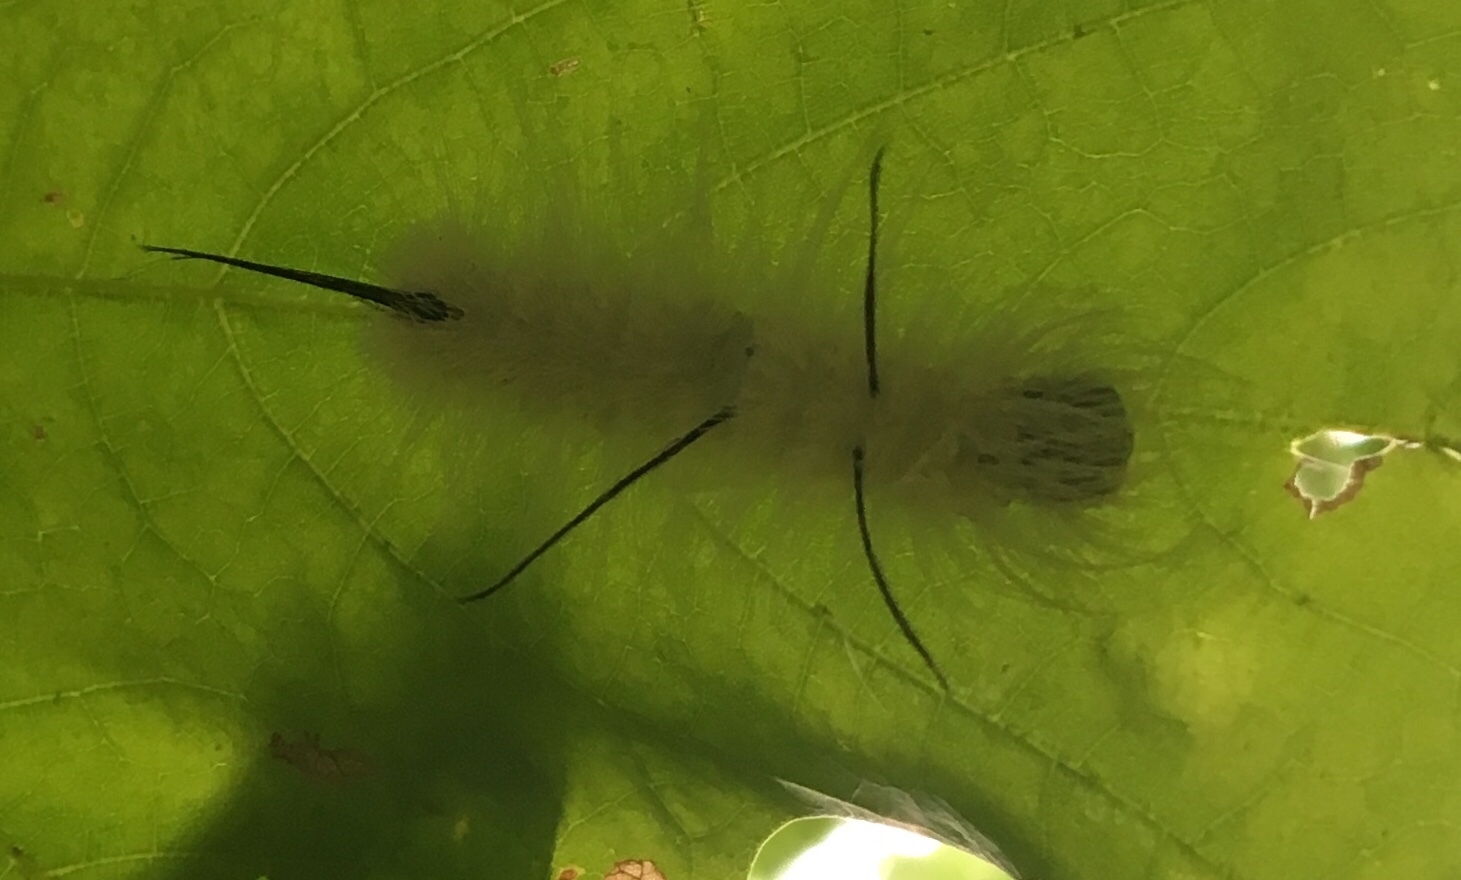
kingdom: Animalia
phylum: Arthropoda
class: Insecta
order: Lepidoptera
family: Noctuidae
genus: Acronicta
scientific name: Acronicta americana
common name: American dagger
